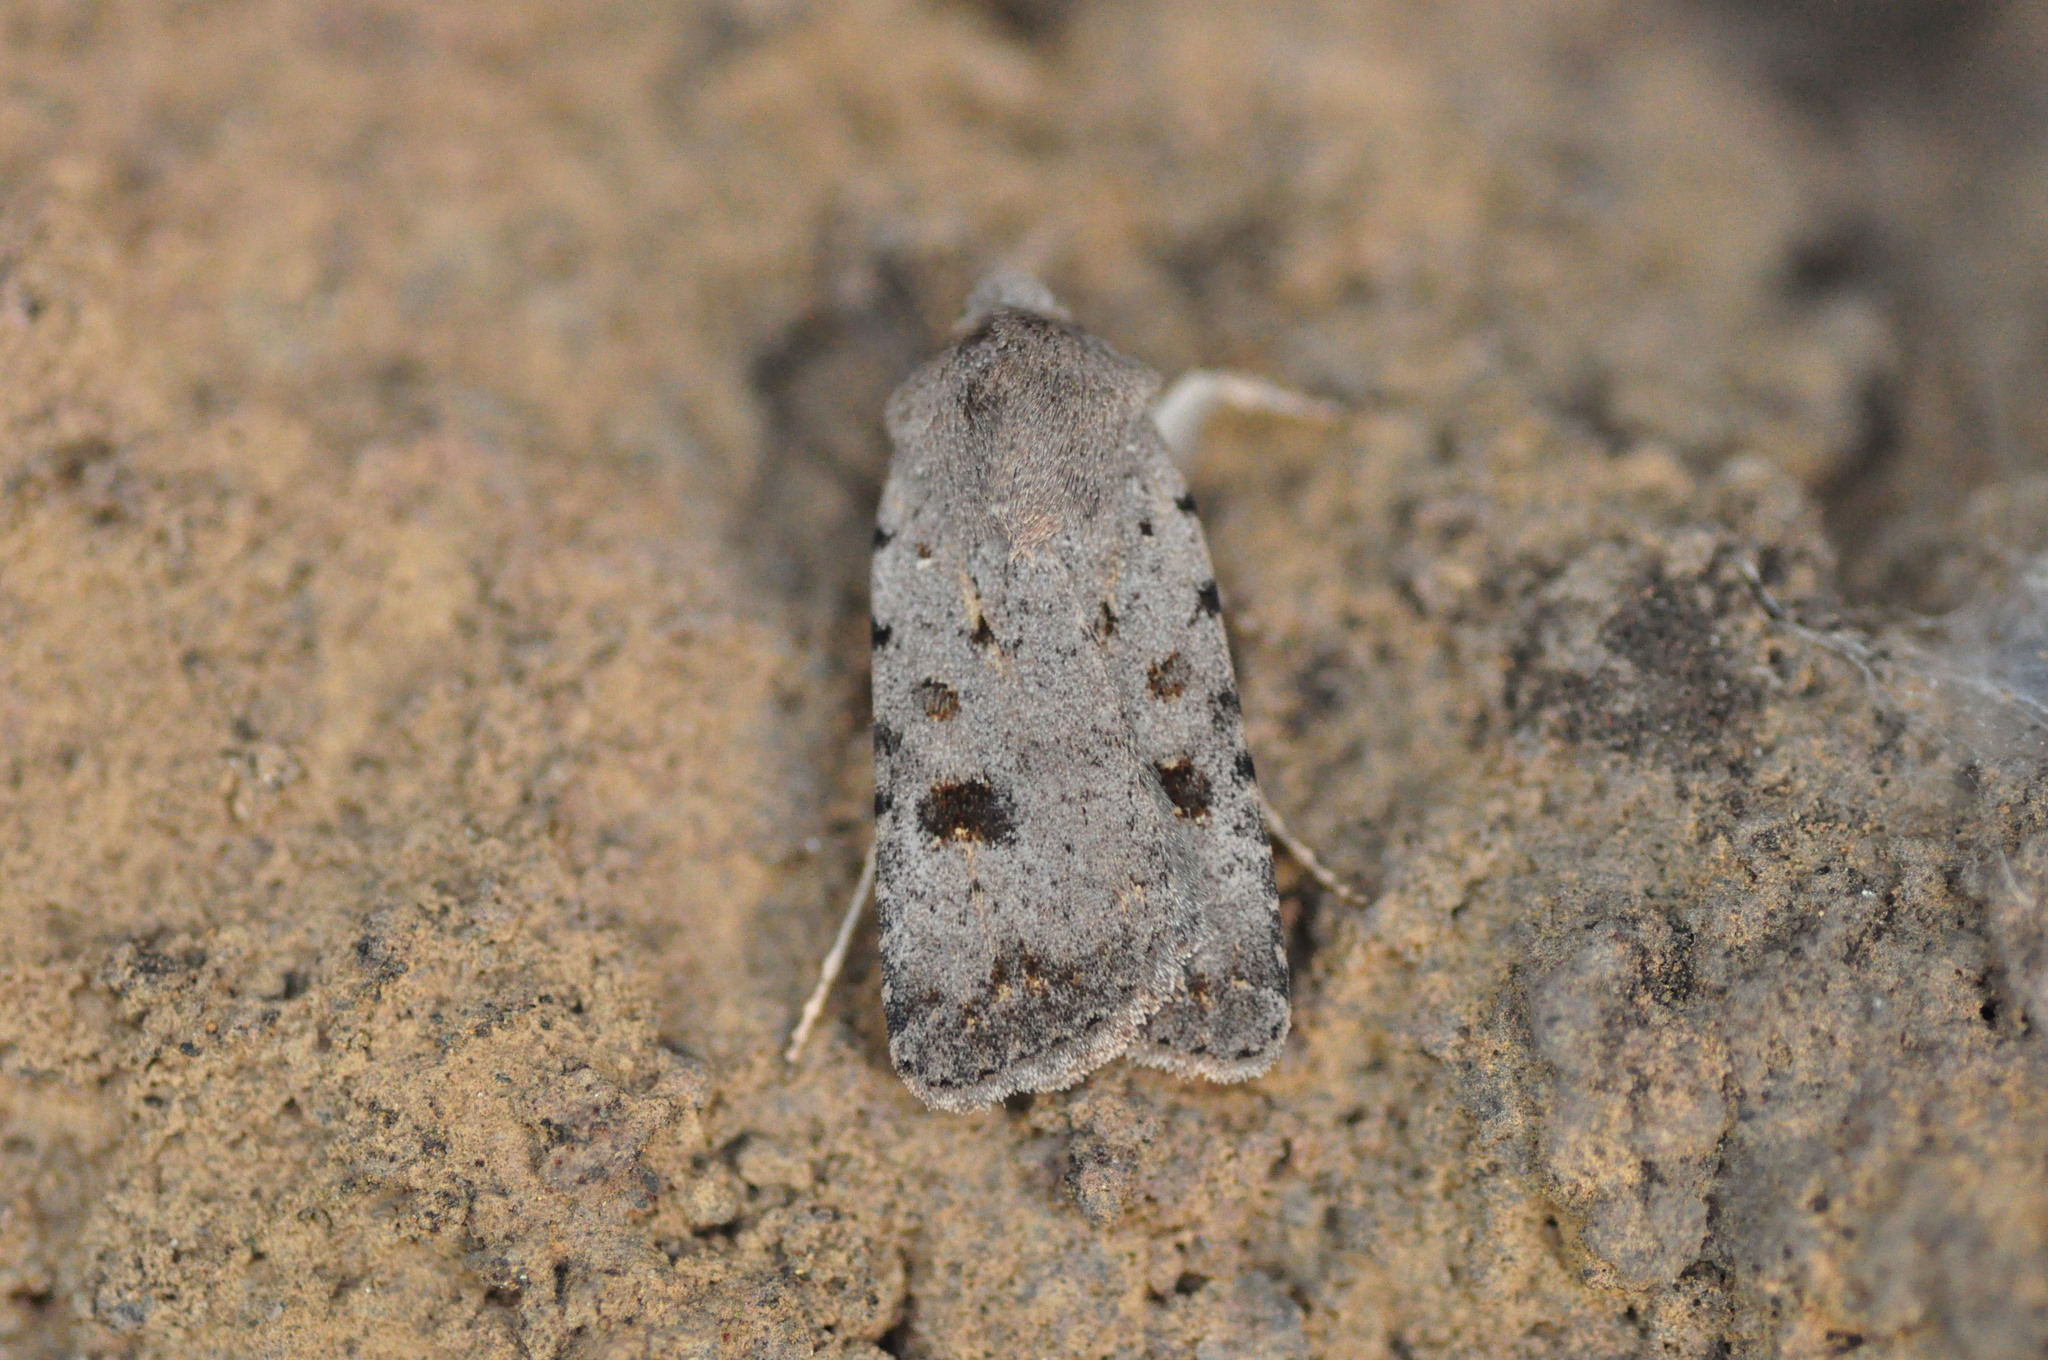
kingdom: Animalia
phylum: Arthropoda
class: Insecta
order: Lepidoptera
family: Noctuidae
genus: Caradrina
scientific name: Caradrina
